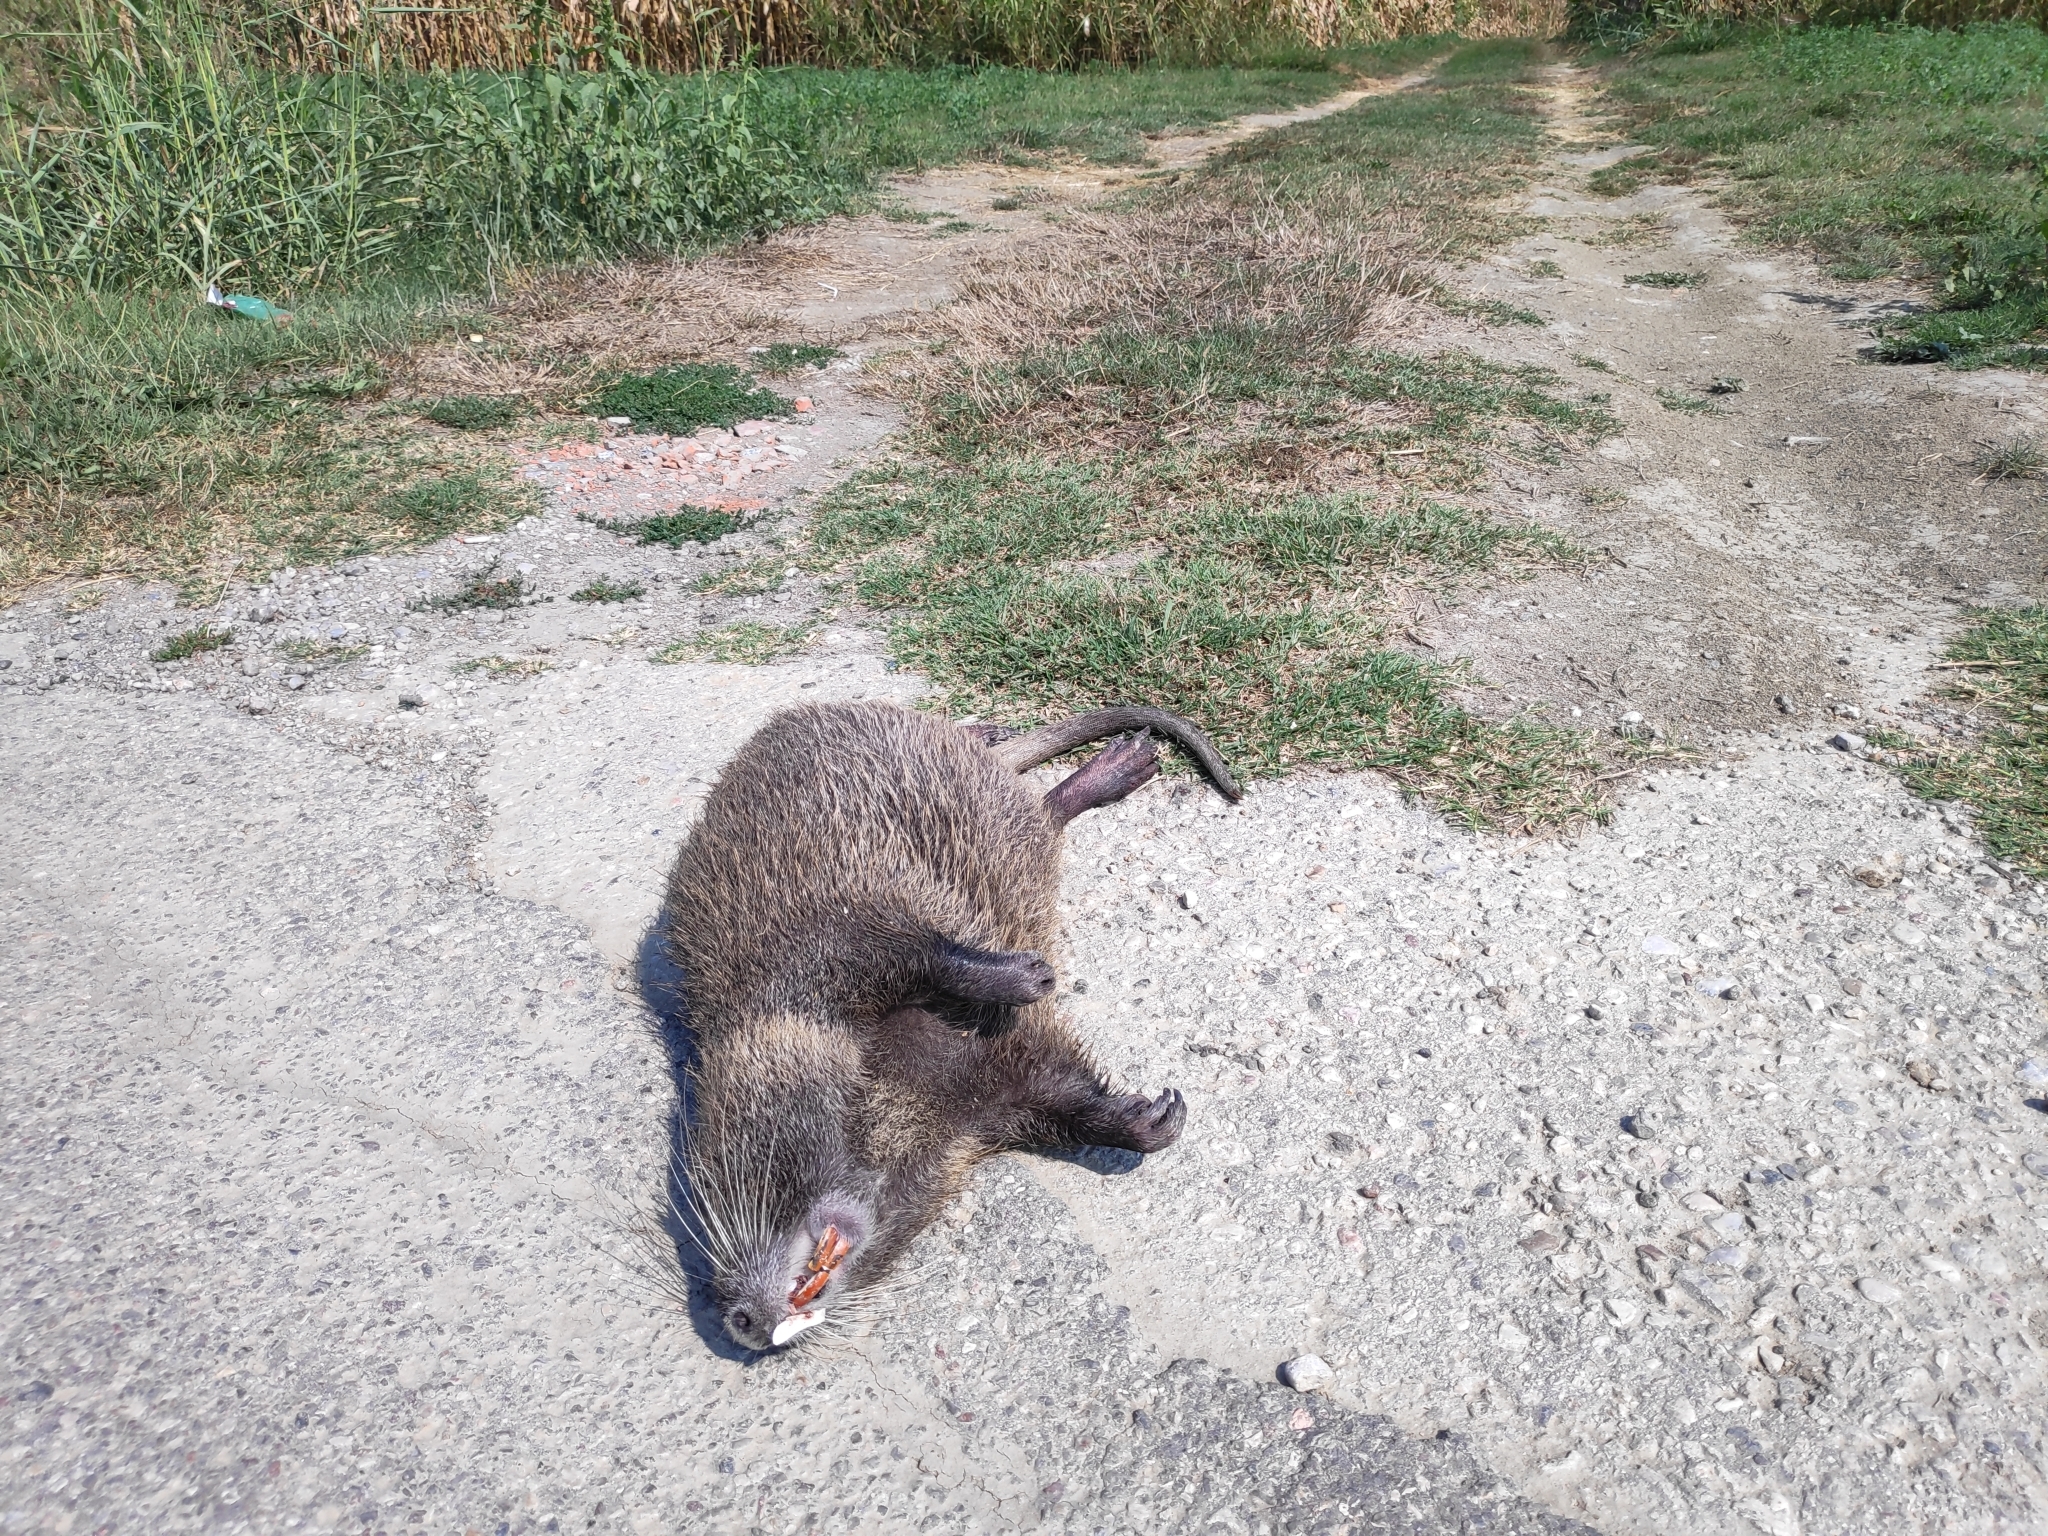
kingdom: Animalia
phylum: Chordata
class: Mammalia
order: Rodentia
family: Myocastoridae
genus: Myocastor
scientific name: Myocastor coypus
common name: Coypu
